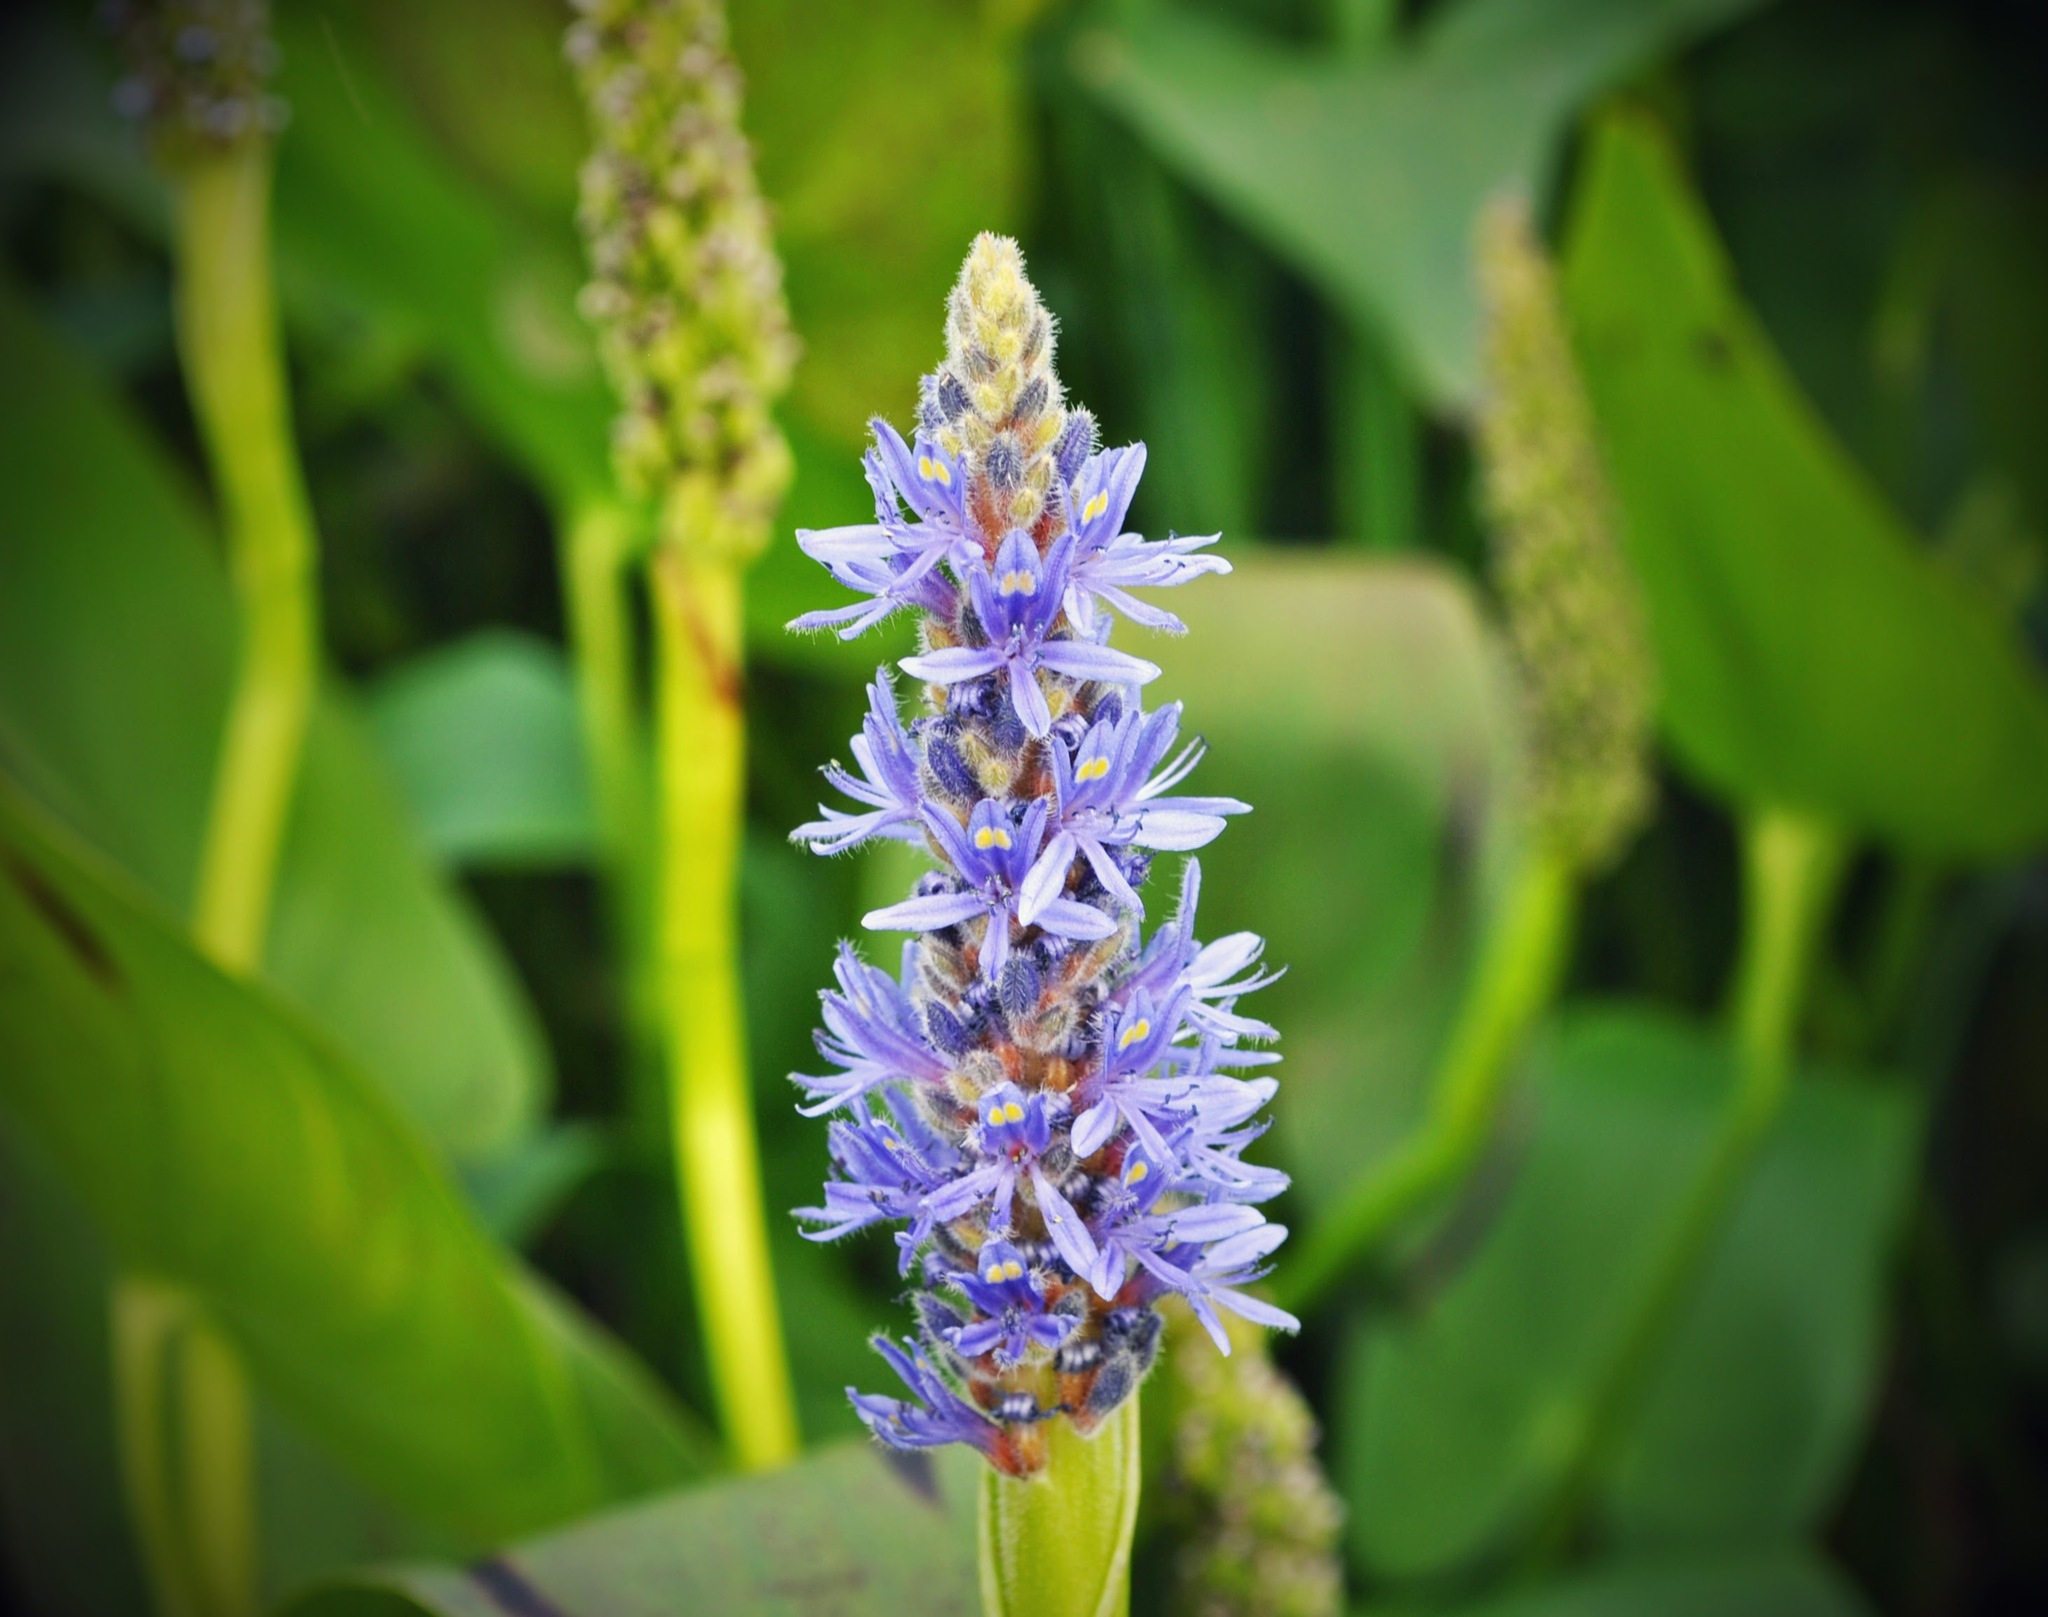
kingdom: Plantae
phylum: Tracheophyta
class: Liliopsida
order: Commelinales
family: Pontederiaceae
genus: Pontederia
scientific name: Pontederia cordata
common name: Pickerelweed
